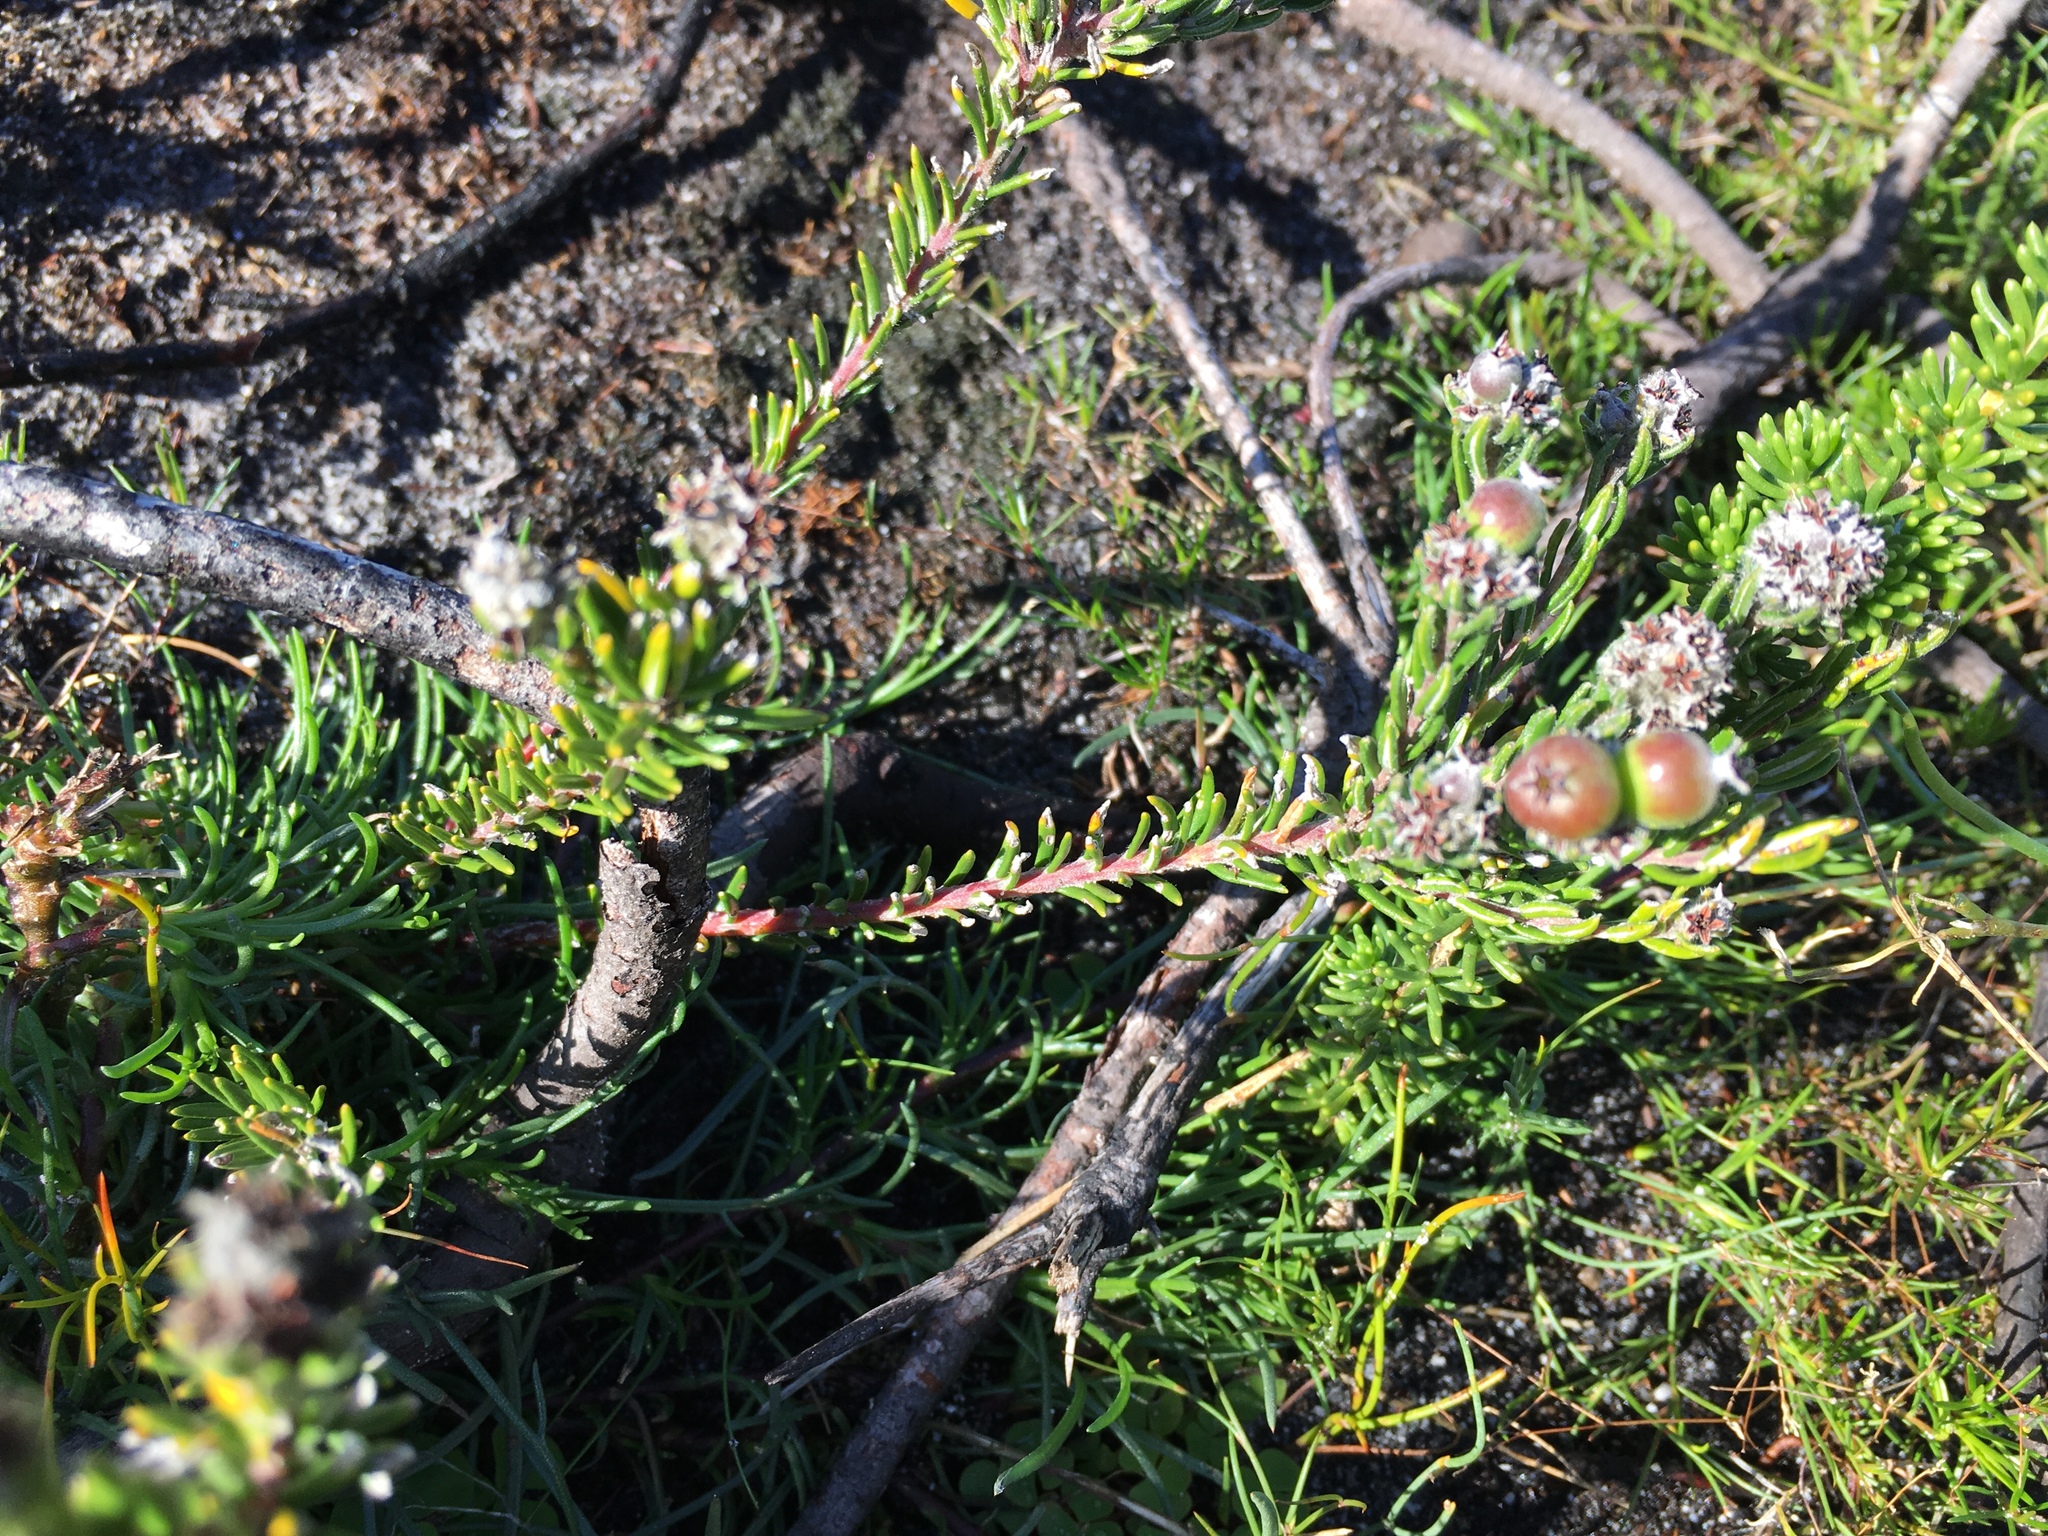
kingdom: Plantae
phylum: Tracheophyta
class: Magnoliopsida
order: Rosales
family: Rhamnaceae
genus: Phylica
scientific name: Phylica imberbis
